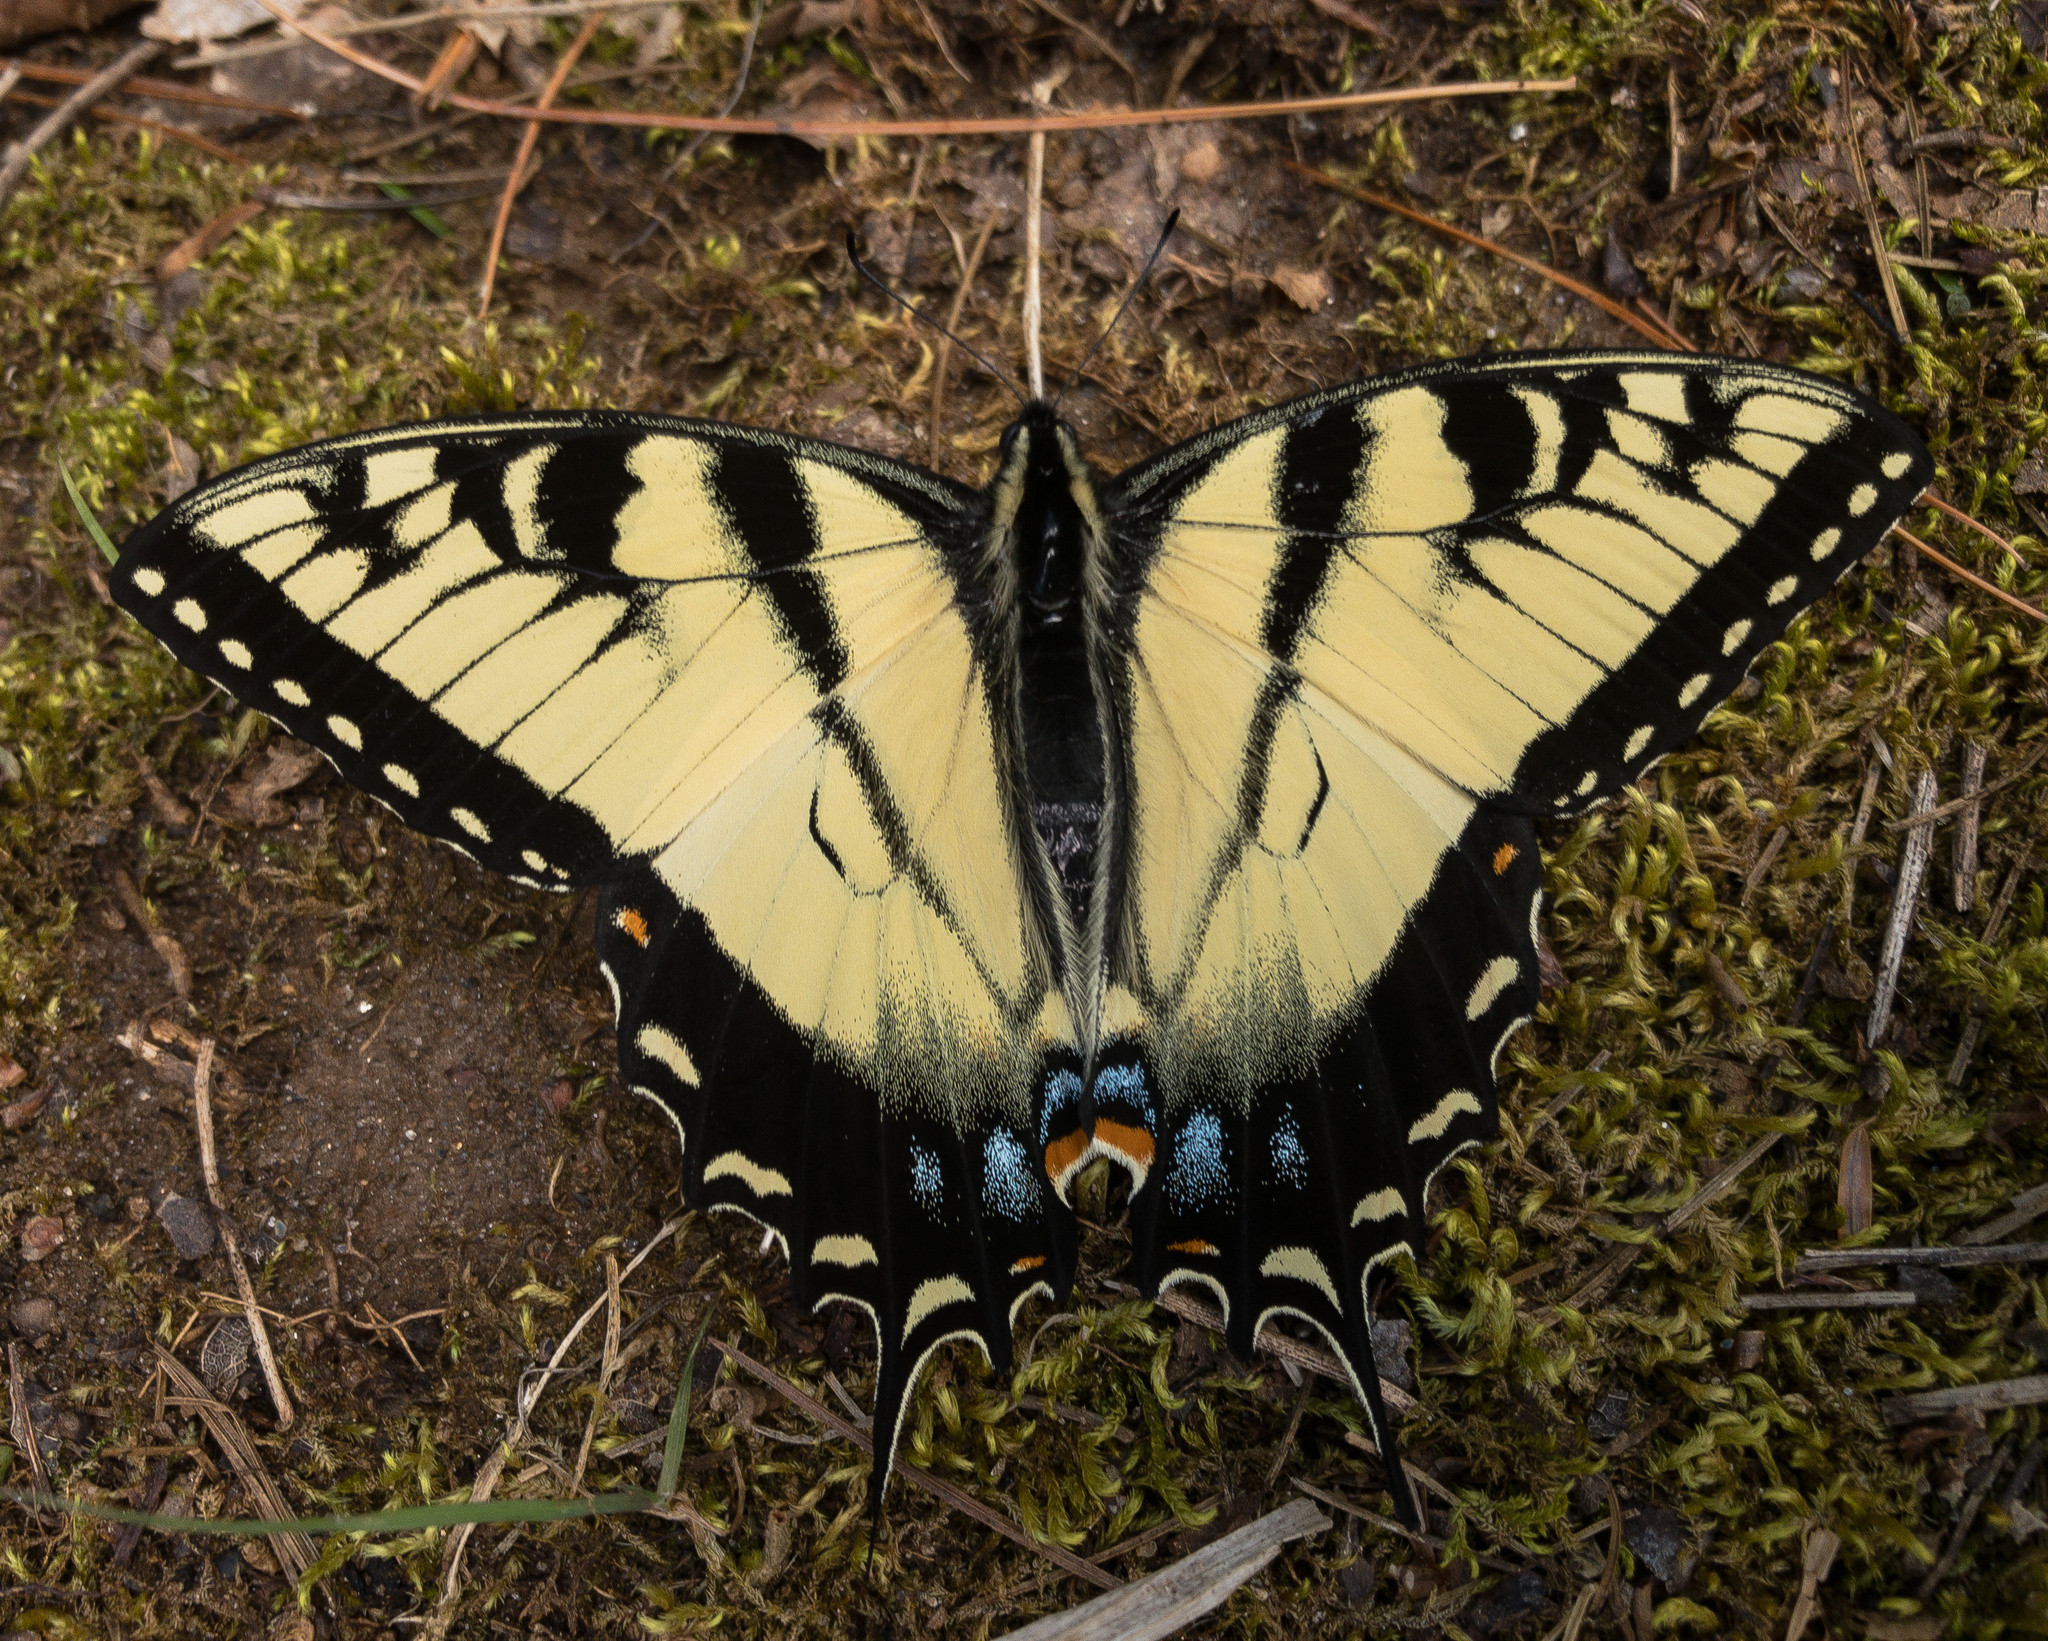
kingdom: Animalia
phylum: Arthropoda
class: Insecta
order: Lepidoptera
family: Papilionidae
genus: Papilio
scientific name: Papilio glaucus
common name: Tiger swallowtail
